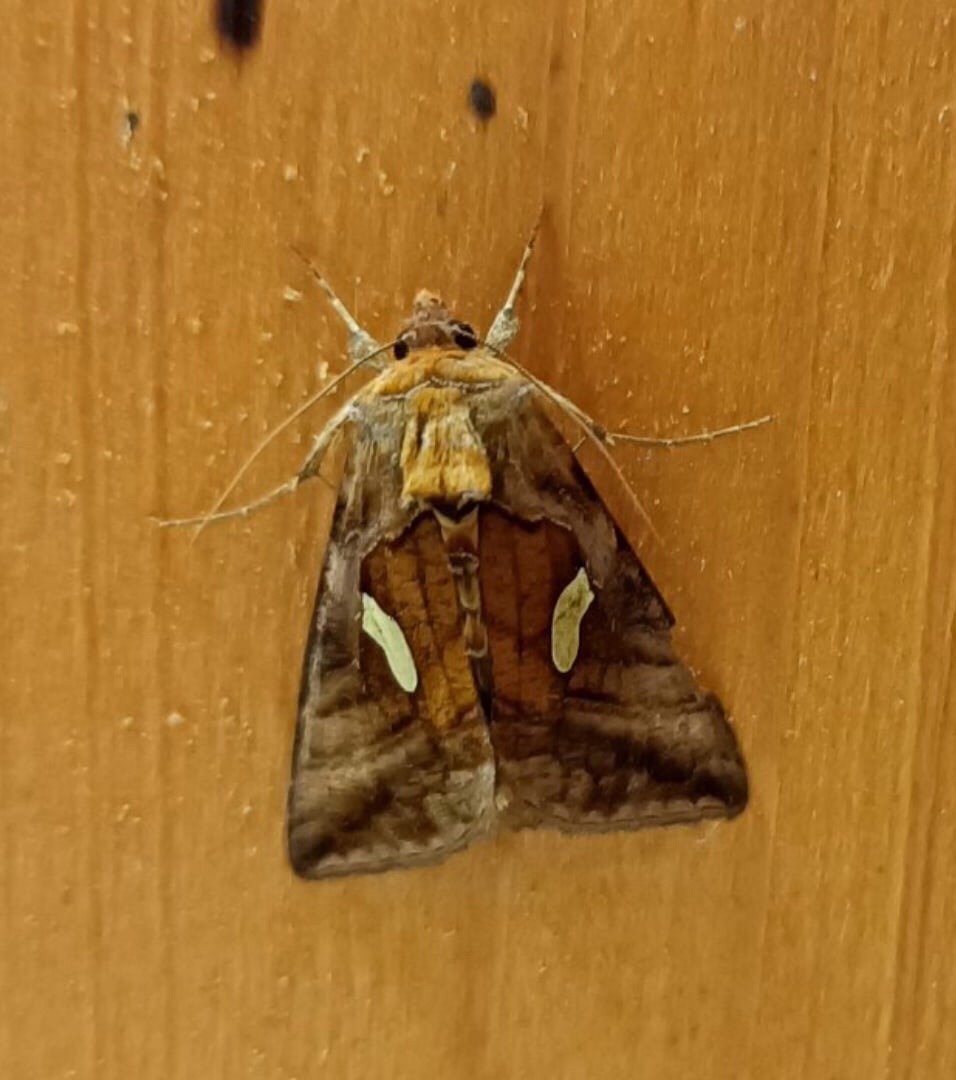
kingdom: Animalia
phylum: Arthropoda
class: Insecta
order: Lepidoptera
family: Noctuidae
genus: Autographa
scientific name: Autographa excelsa
